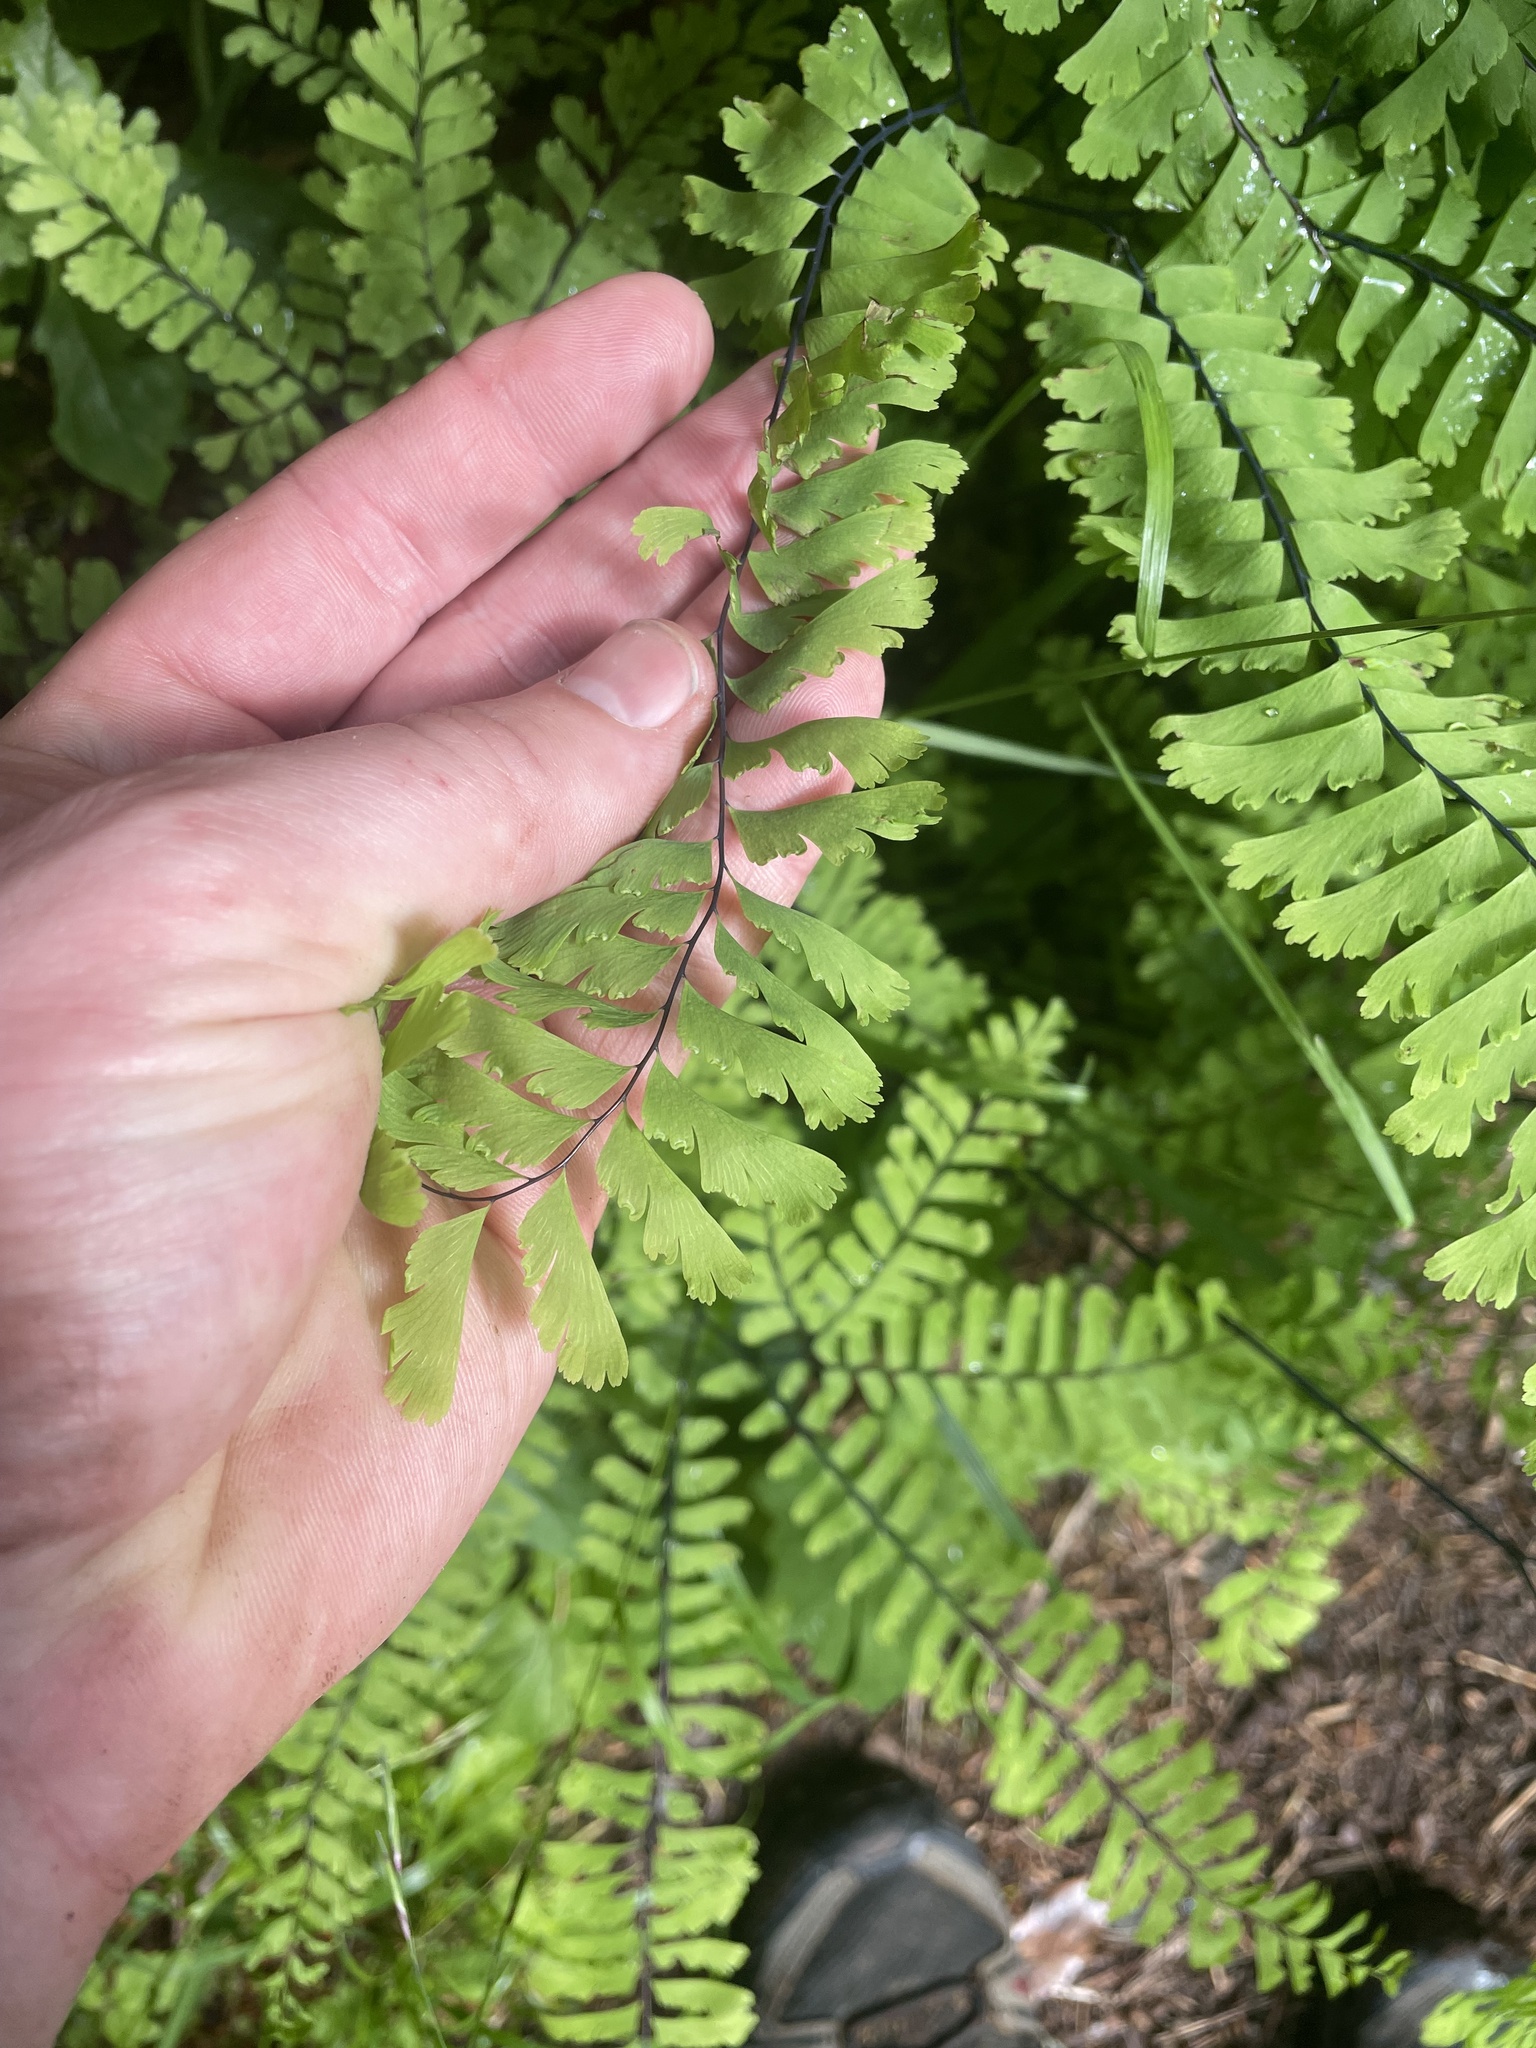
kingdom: Plantae
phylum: Tracheophyta
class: Polypodiopsida
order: Polypodiales
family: Pteridaceae
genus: Adiantum
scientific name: Adiantum aleuticum
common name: Aleutian maidenhair fern
